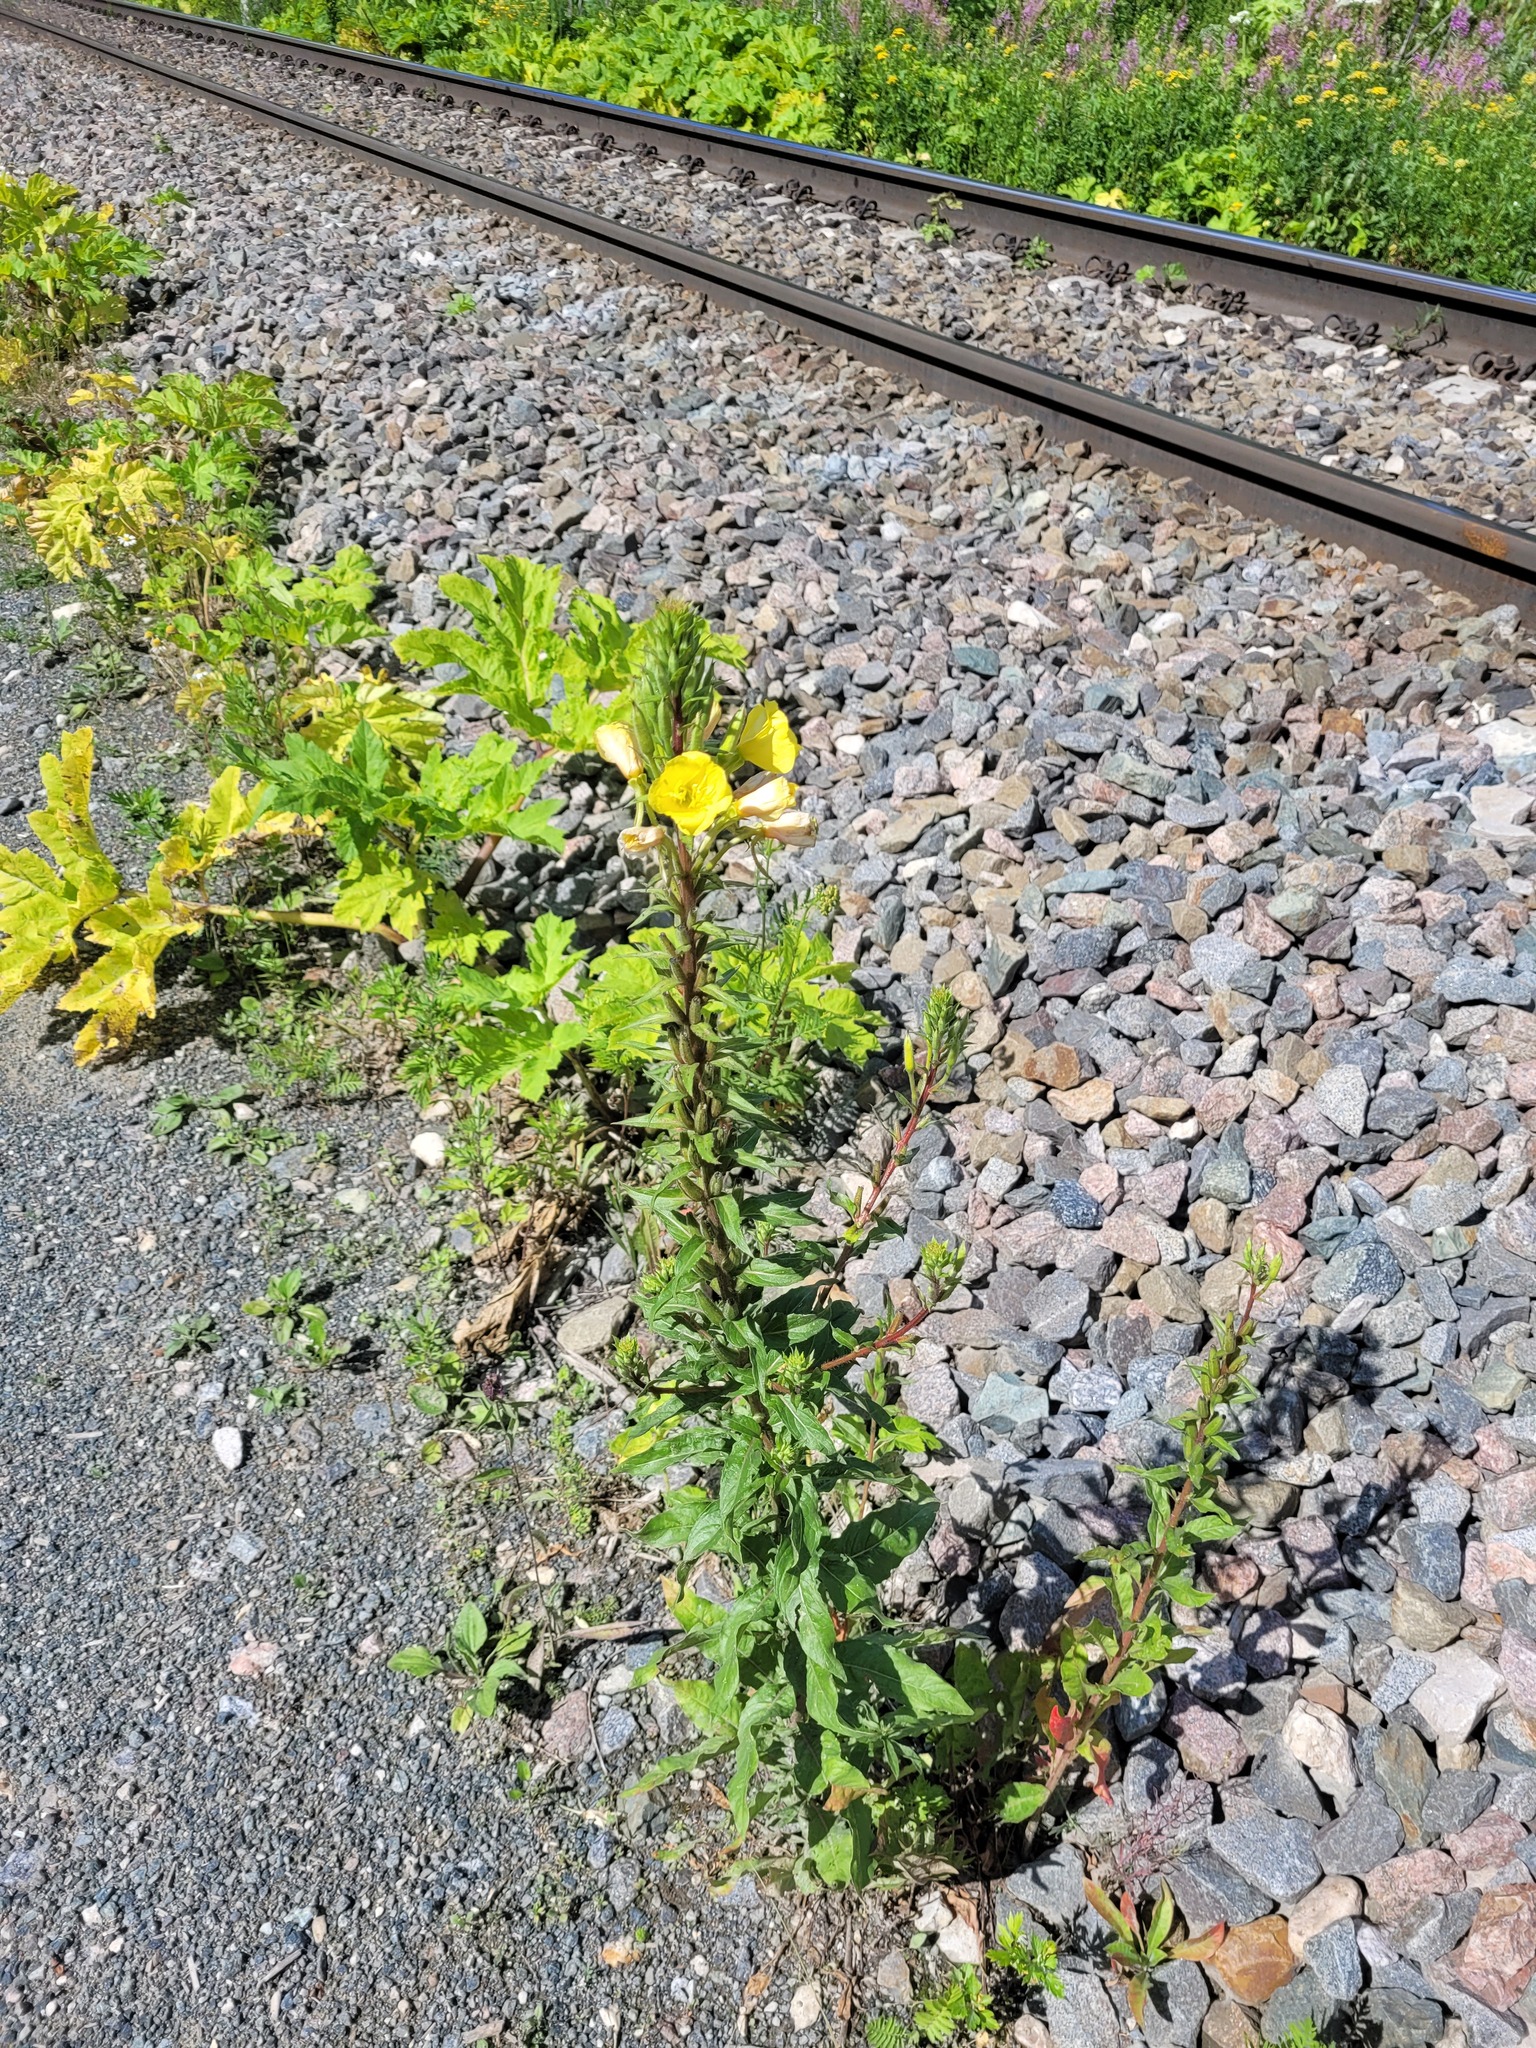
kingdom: Plantae
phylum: Tracheophyta
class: Magnoliopsida
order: Myrtales
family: Onagraceae
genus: Oenothera
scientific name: Oenothera rubricaulis
